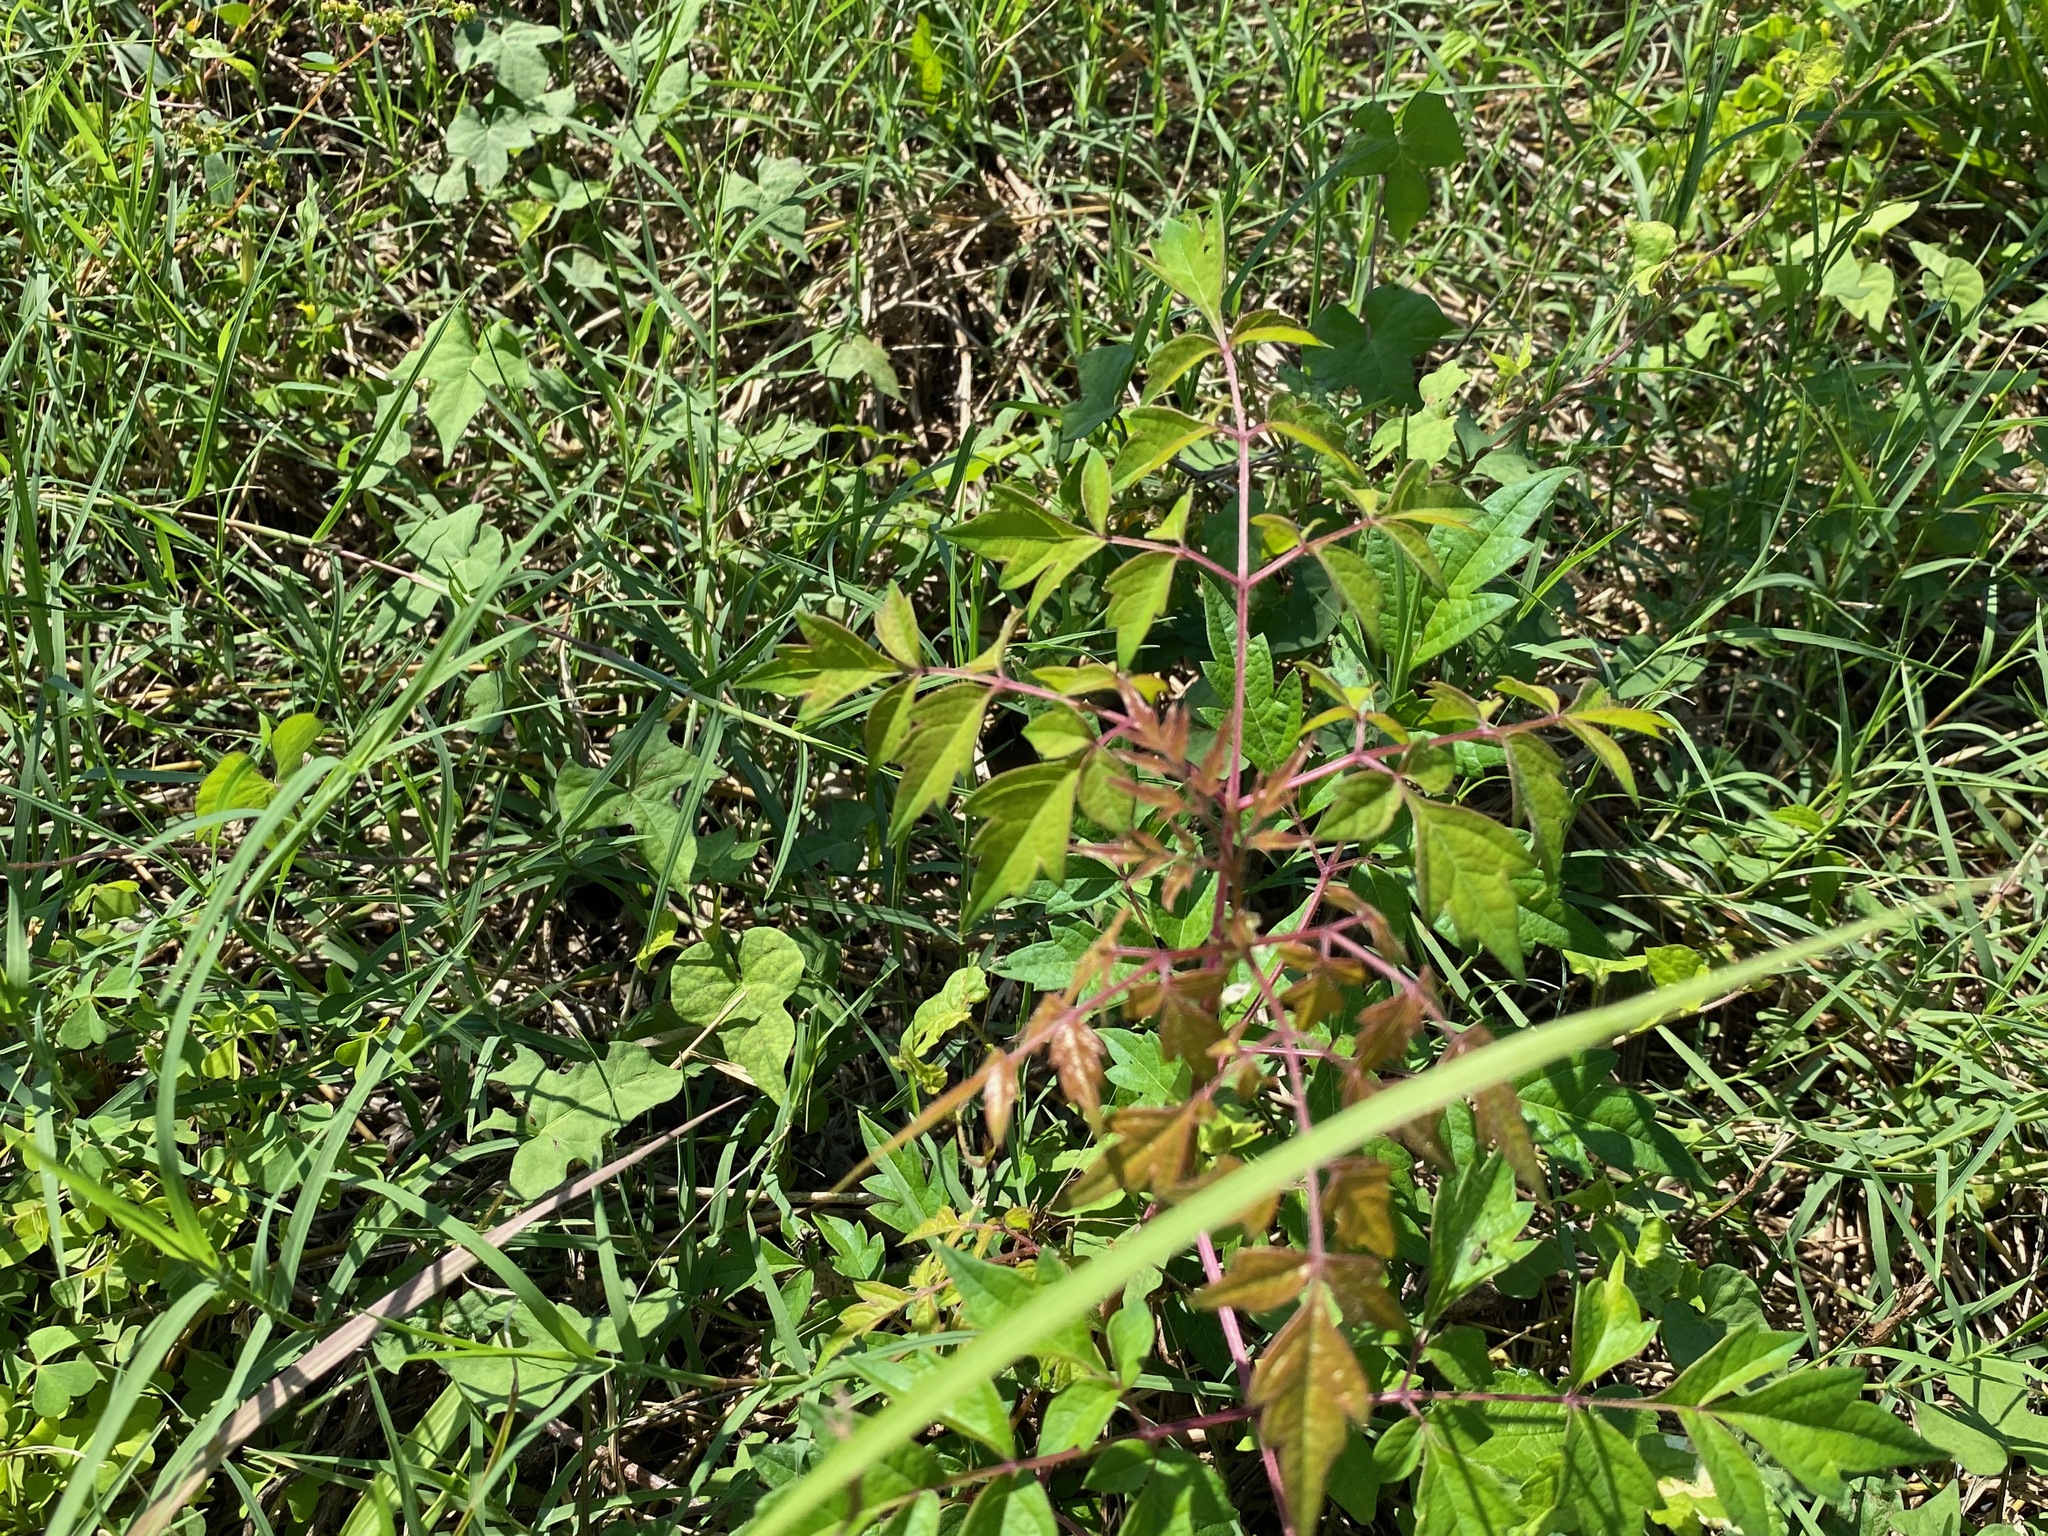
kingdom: Plantae
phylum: Tracheophyta
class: Magnoliopsida
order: Lamiales
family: Bignoniaceae
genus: Campsis
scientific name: Campsis radicans
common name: Trumpet-creeper
